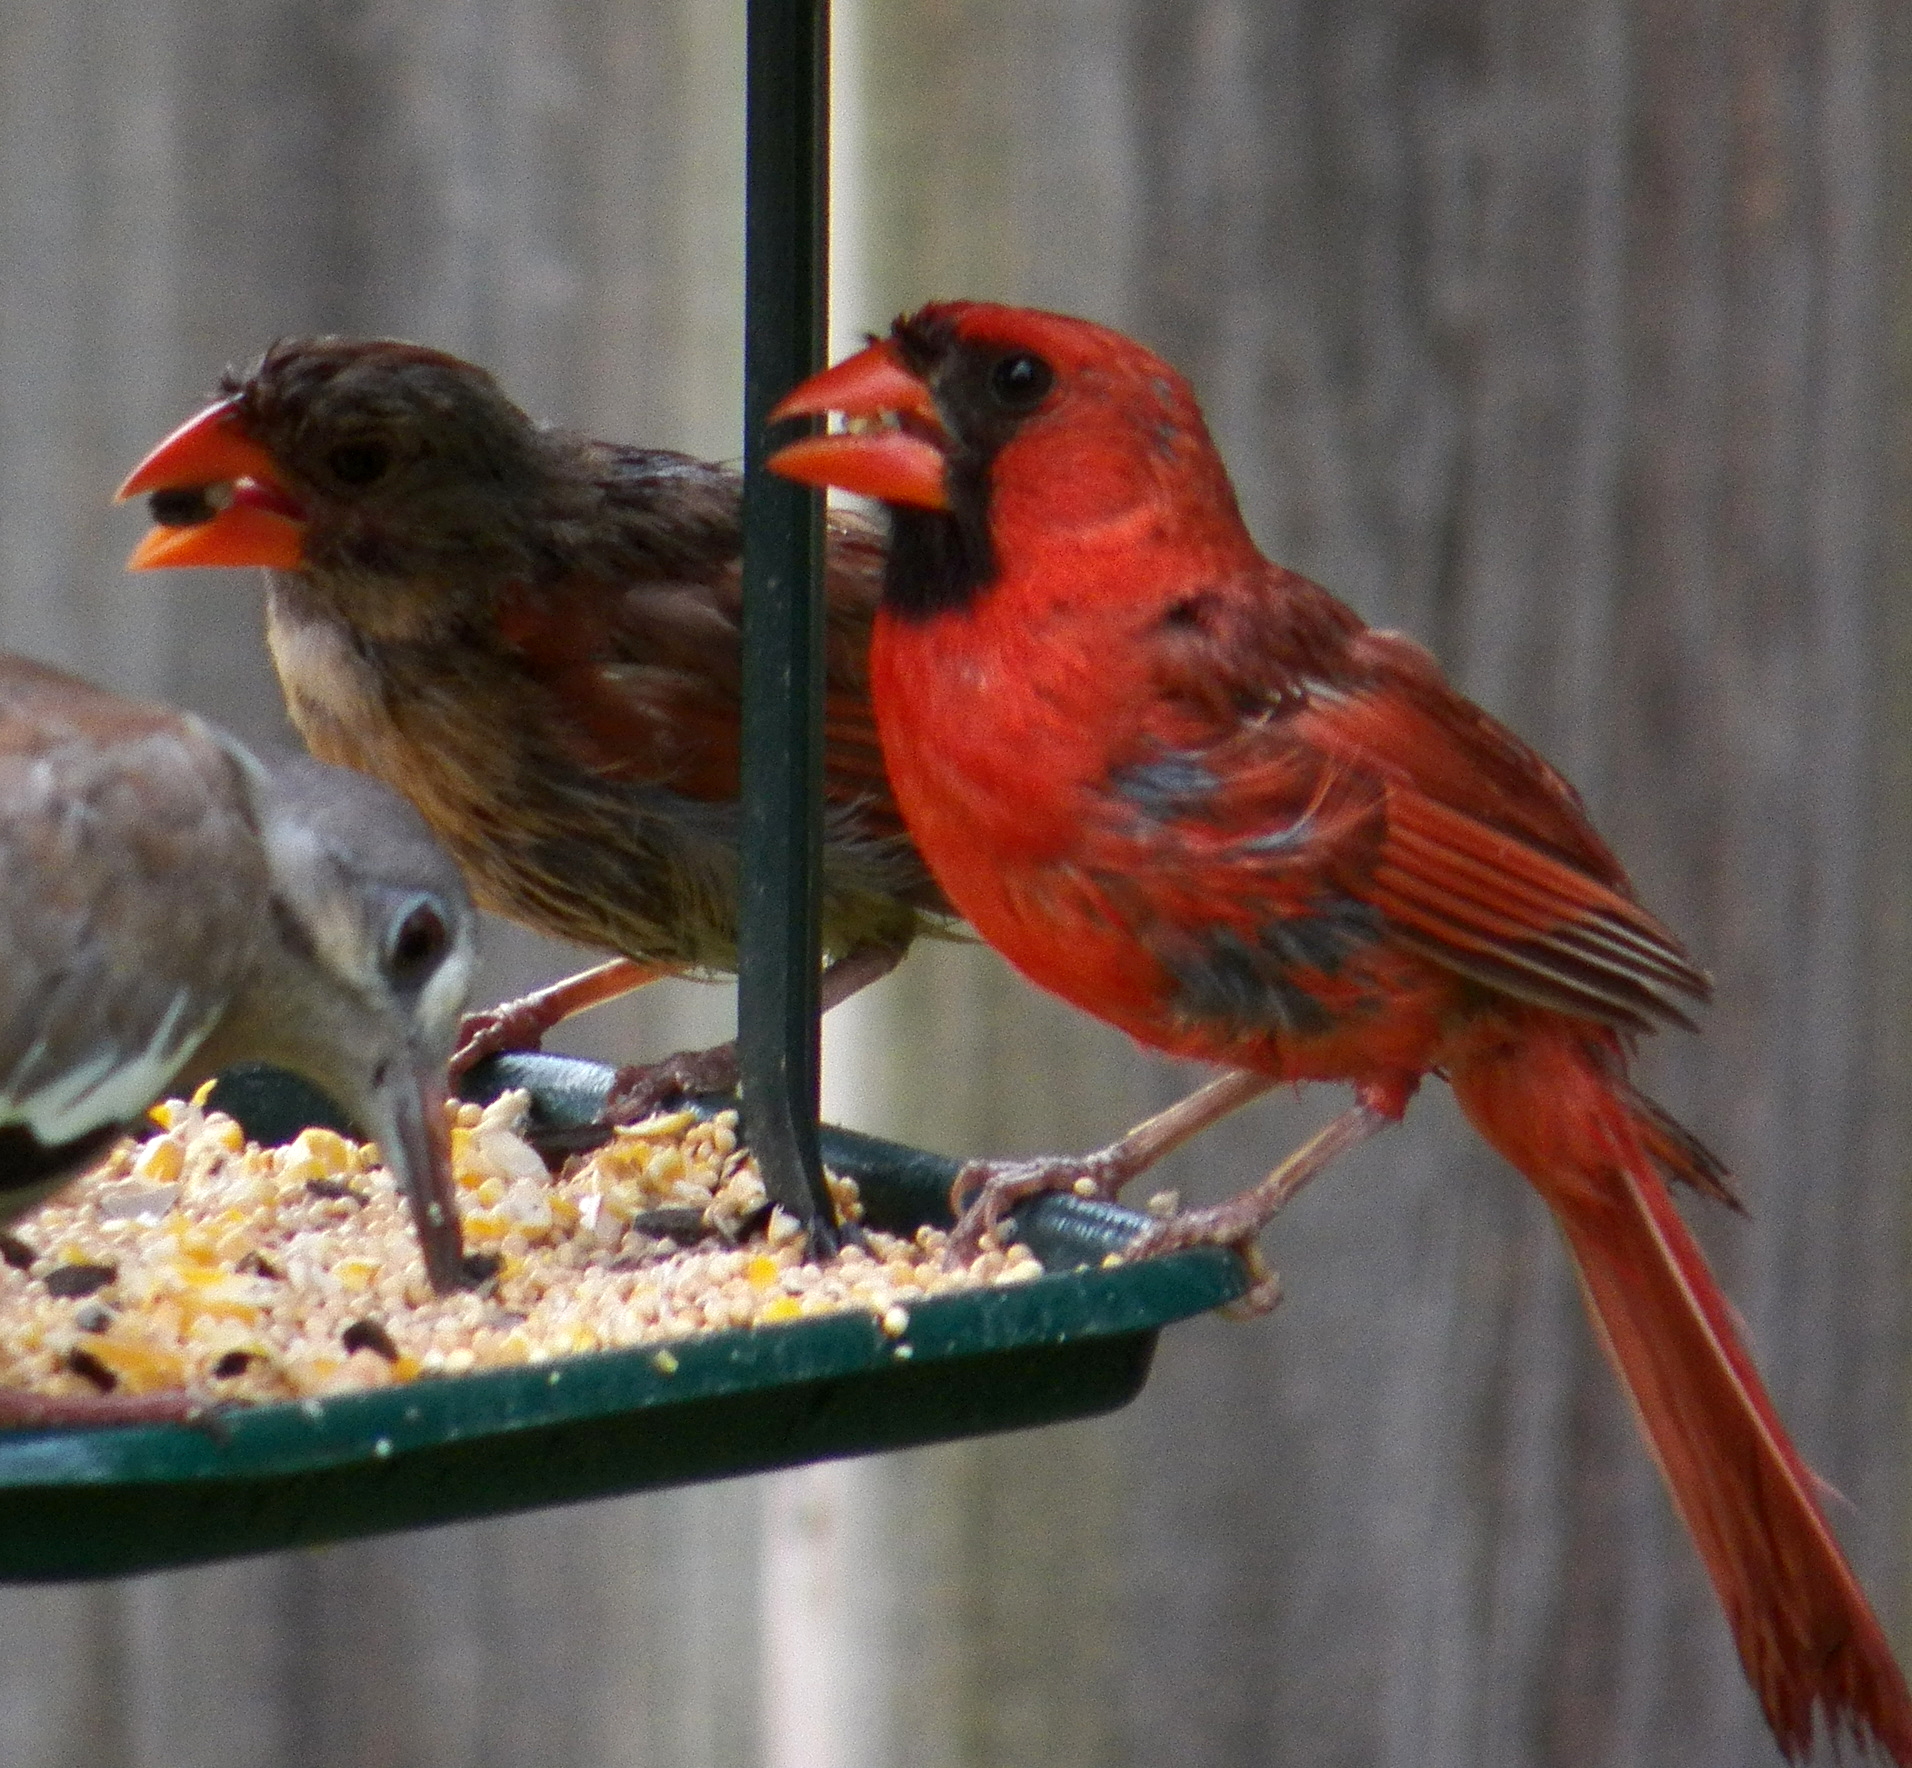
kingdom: Animalia
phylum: Chordata
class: Aves
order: Passeriformes
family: Cardinalidae
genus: Cardinalis
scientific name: Cardinalis cardinalis
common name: Northern cardinal
